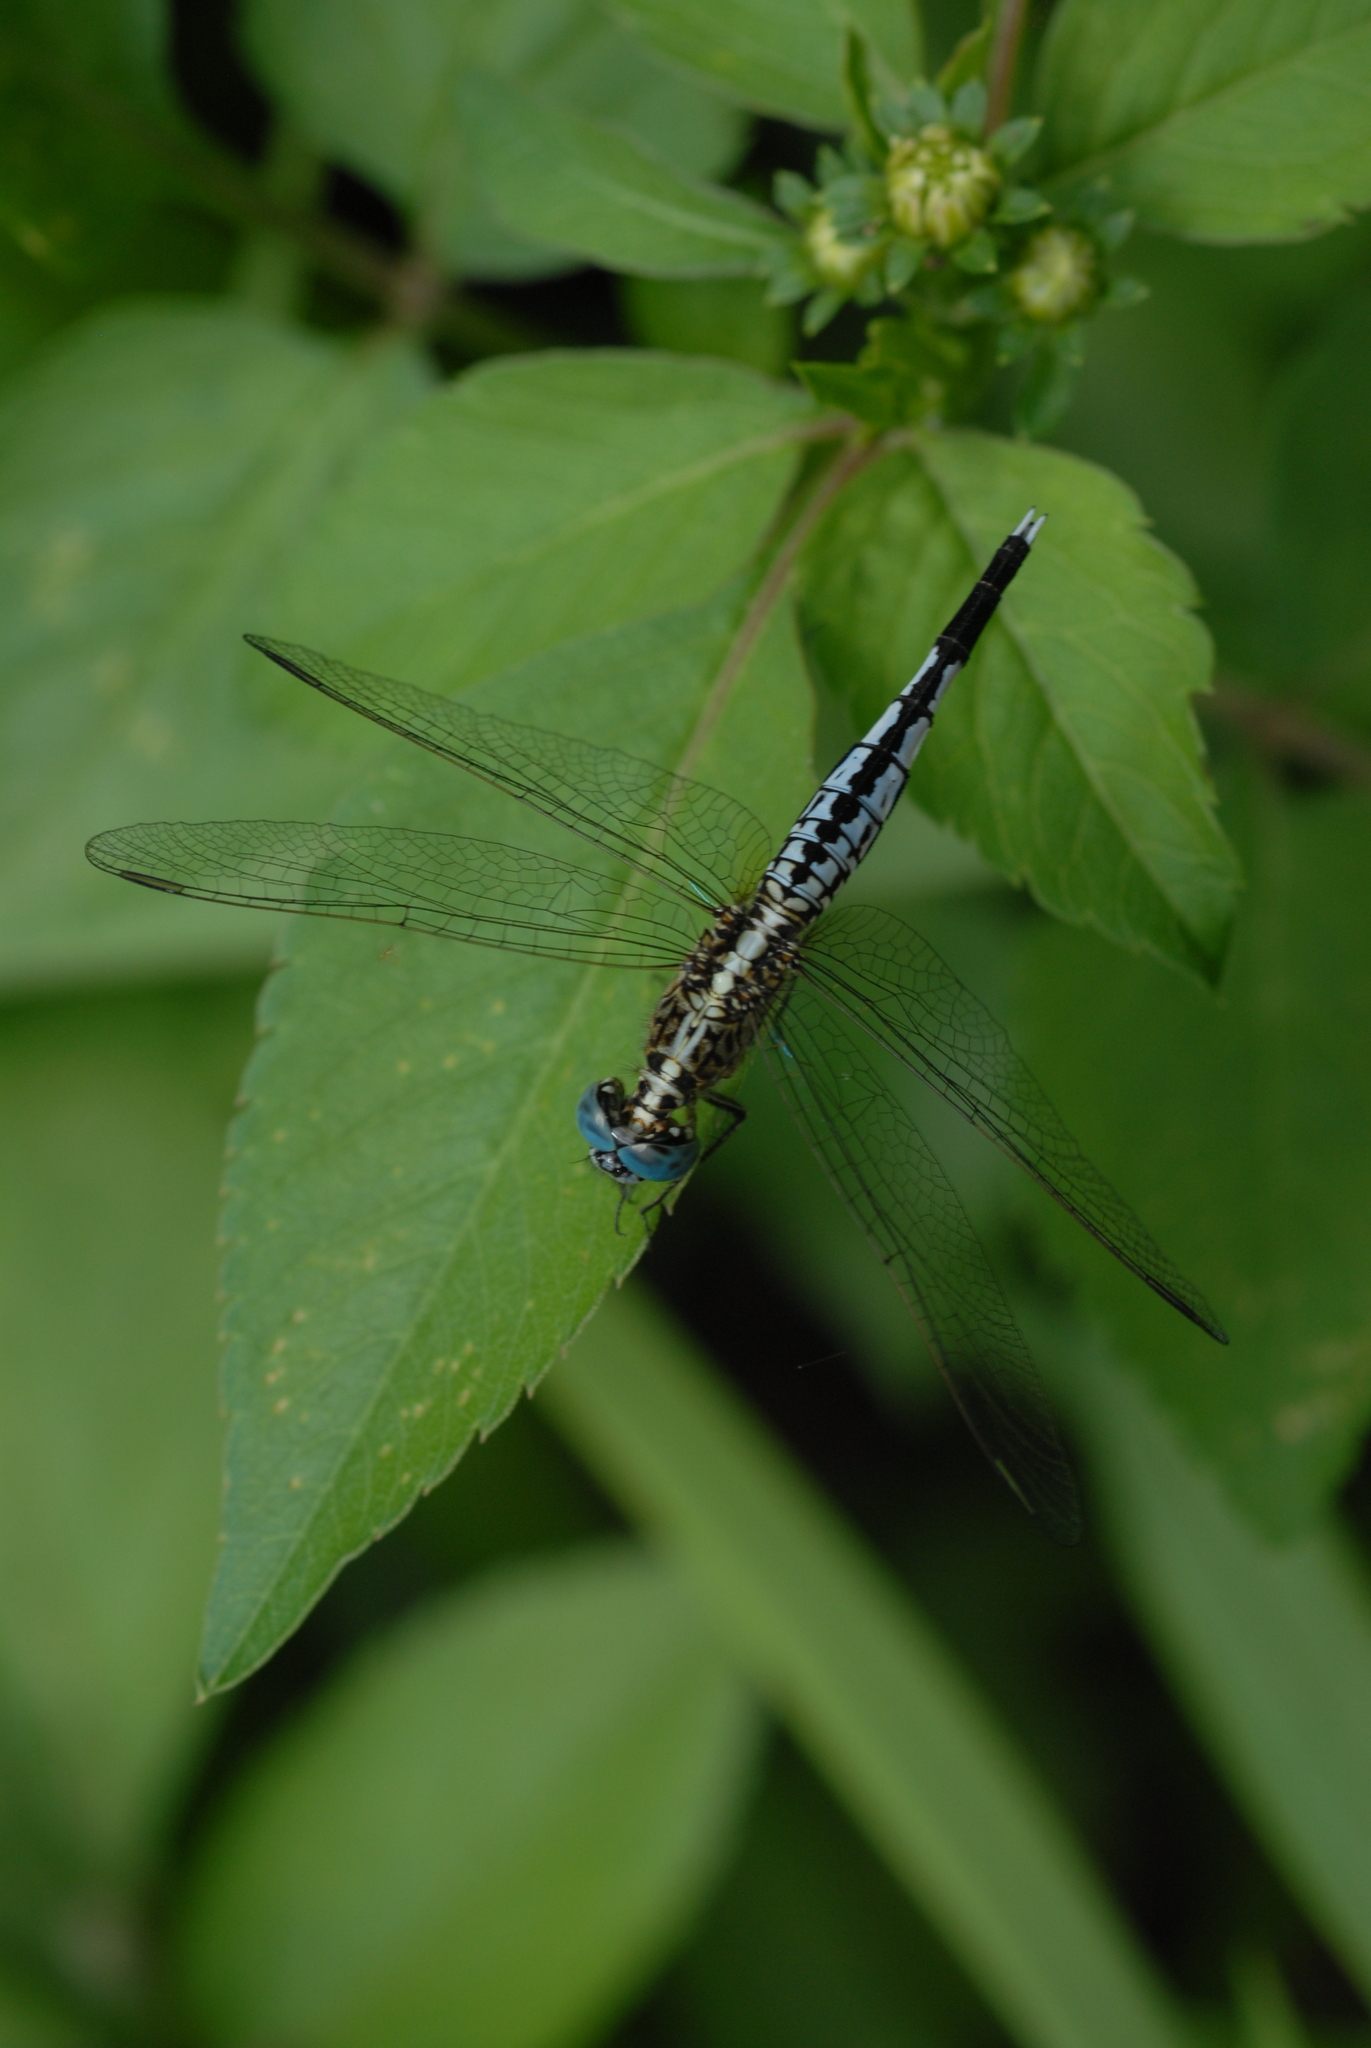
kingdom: Animalia
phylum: Arthropoda
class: Insecta
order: Odonata
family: Libellulidae
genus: Acisoma
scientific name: Acisoma panorpoides
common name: Asian pintail
